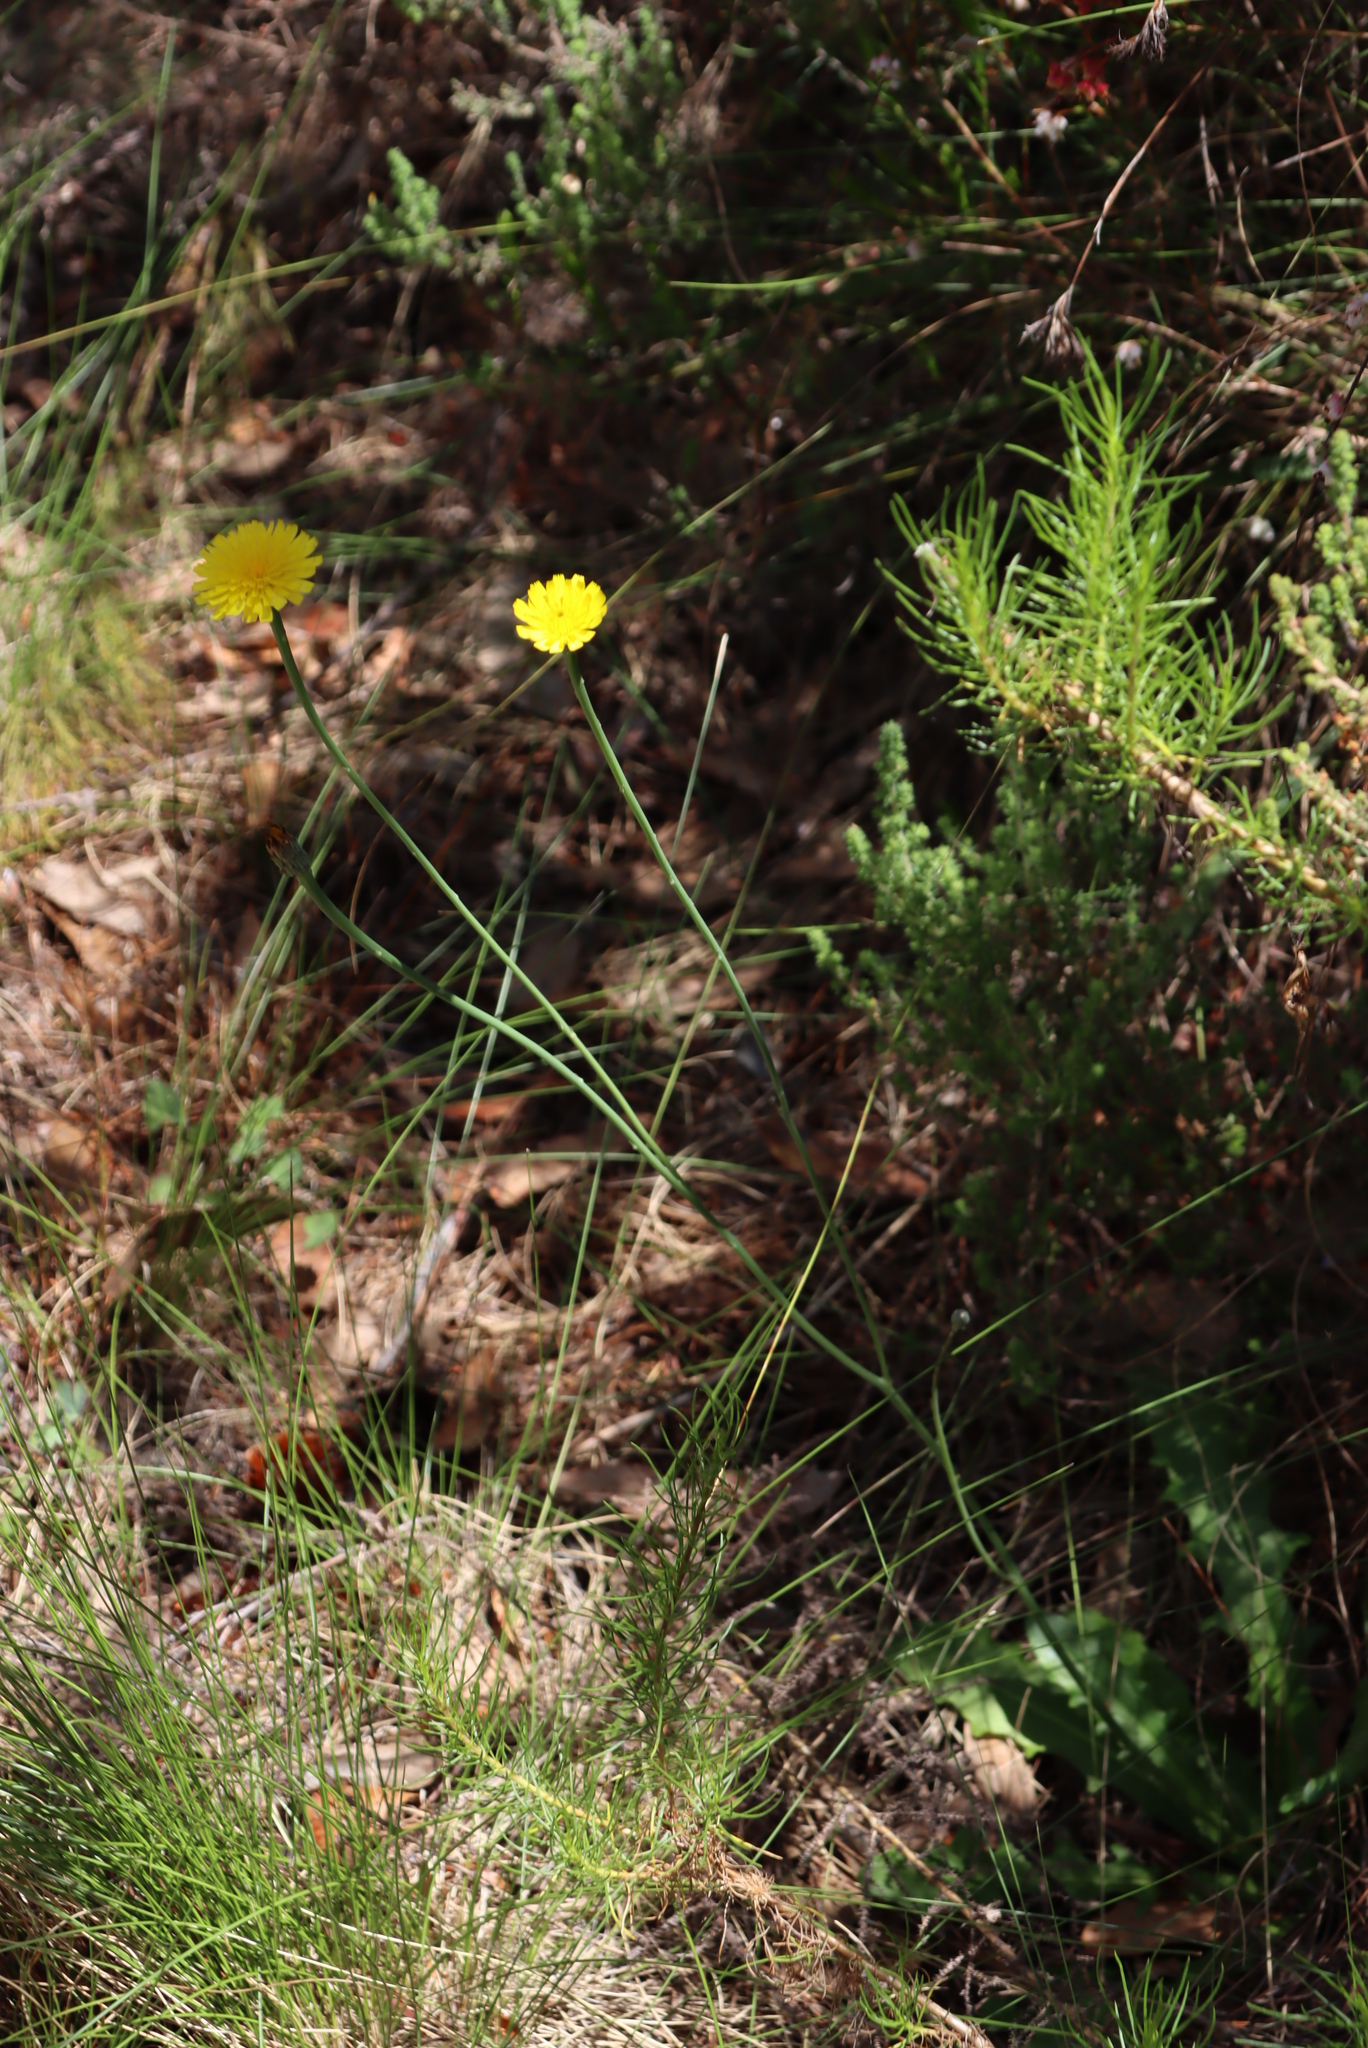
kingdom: Plantae
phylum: Tracheophyta
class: Magnoliopsida
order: Asterales
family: Asteraceae
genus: Hypochaeris
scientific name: Hypochaeris radicata
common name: Flatweed
